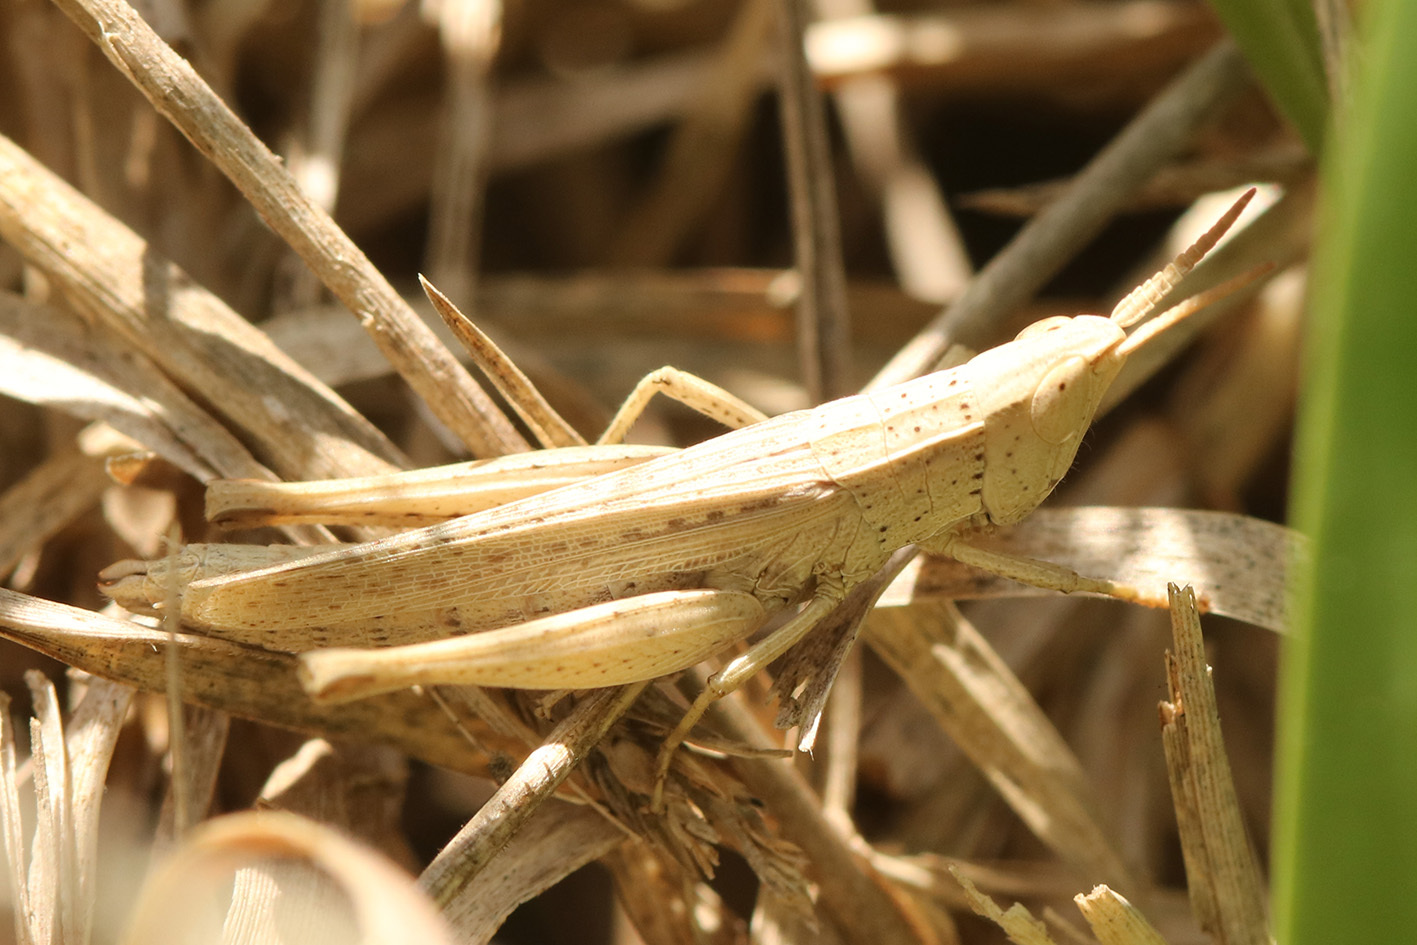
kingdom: Animalia
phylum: Arthropoda
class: Insecta
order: Orthoptera
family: Acrididae
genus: Laplatacris
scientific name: Laplatacris dispar
